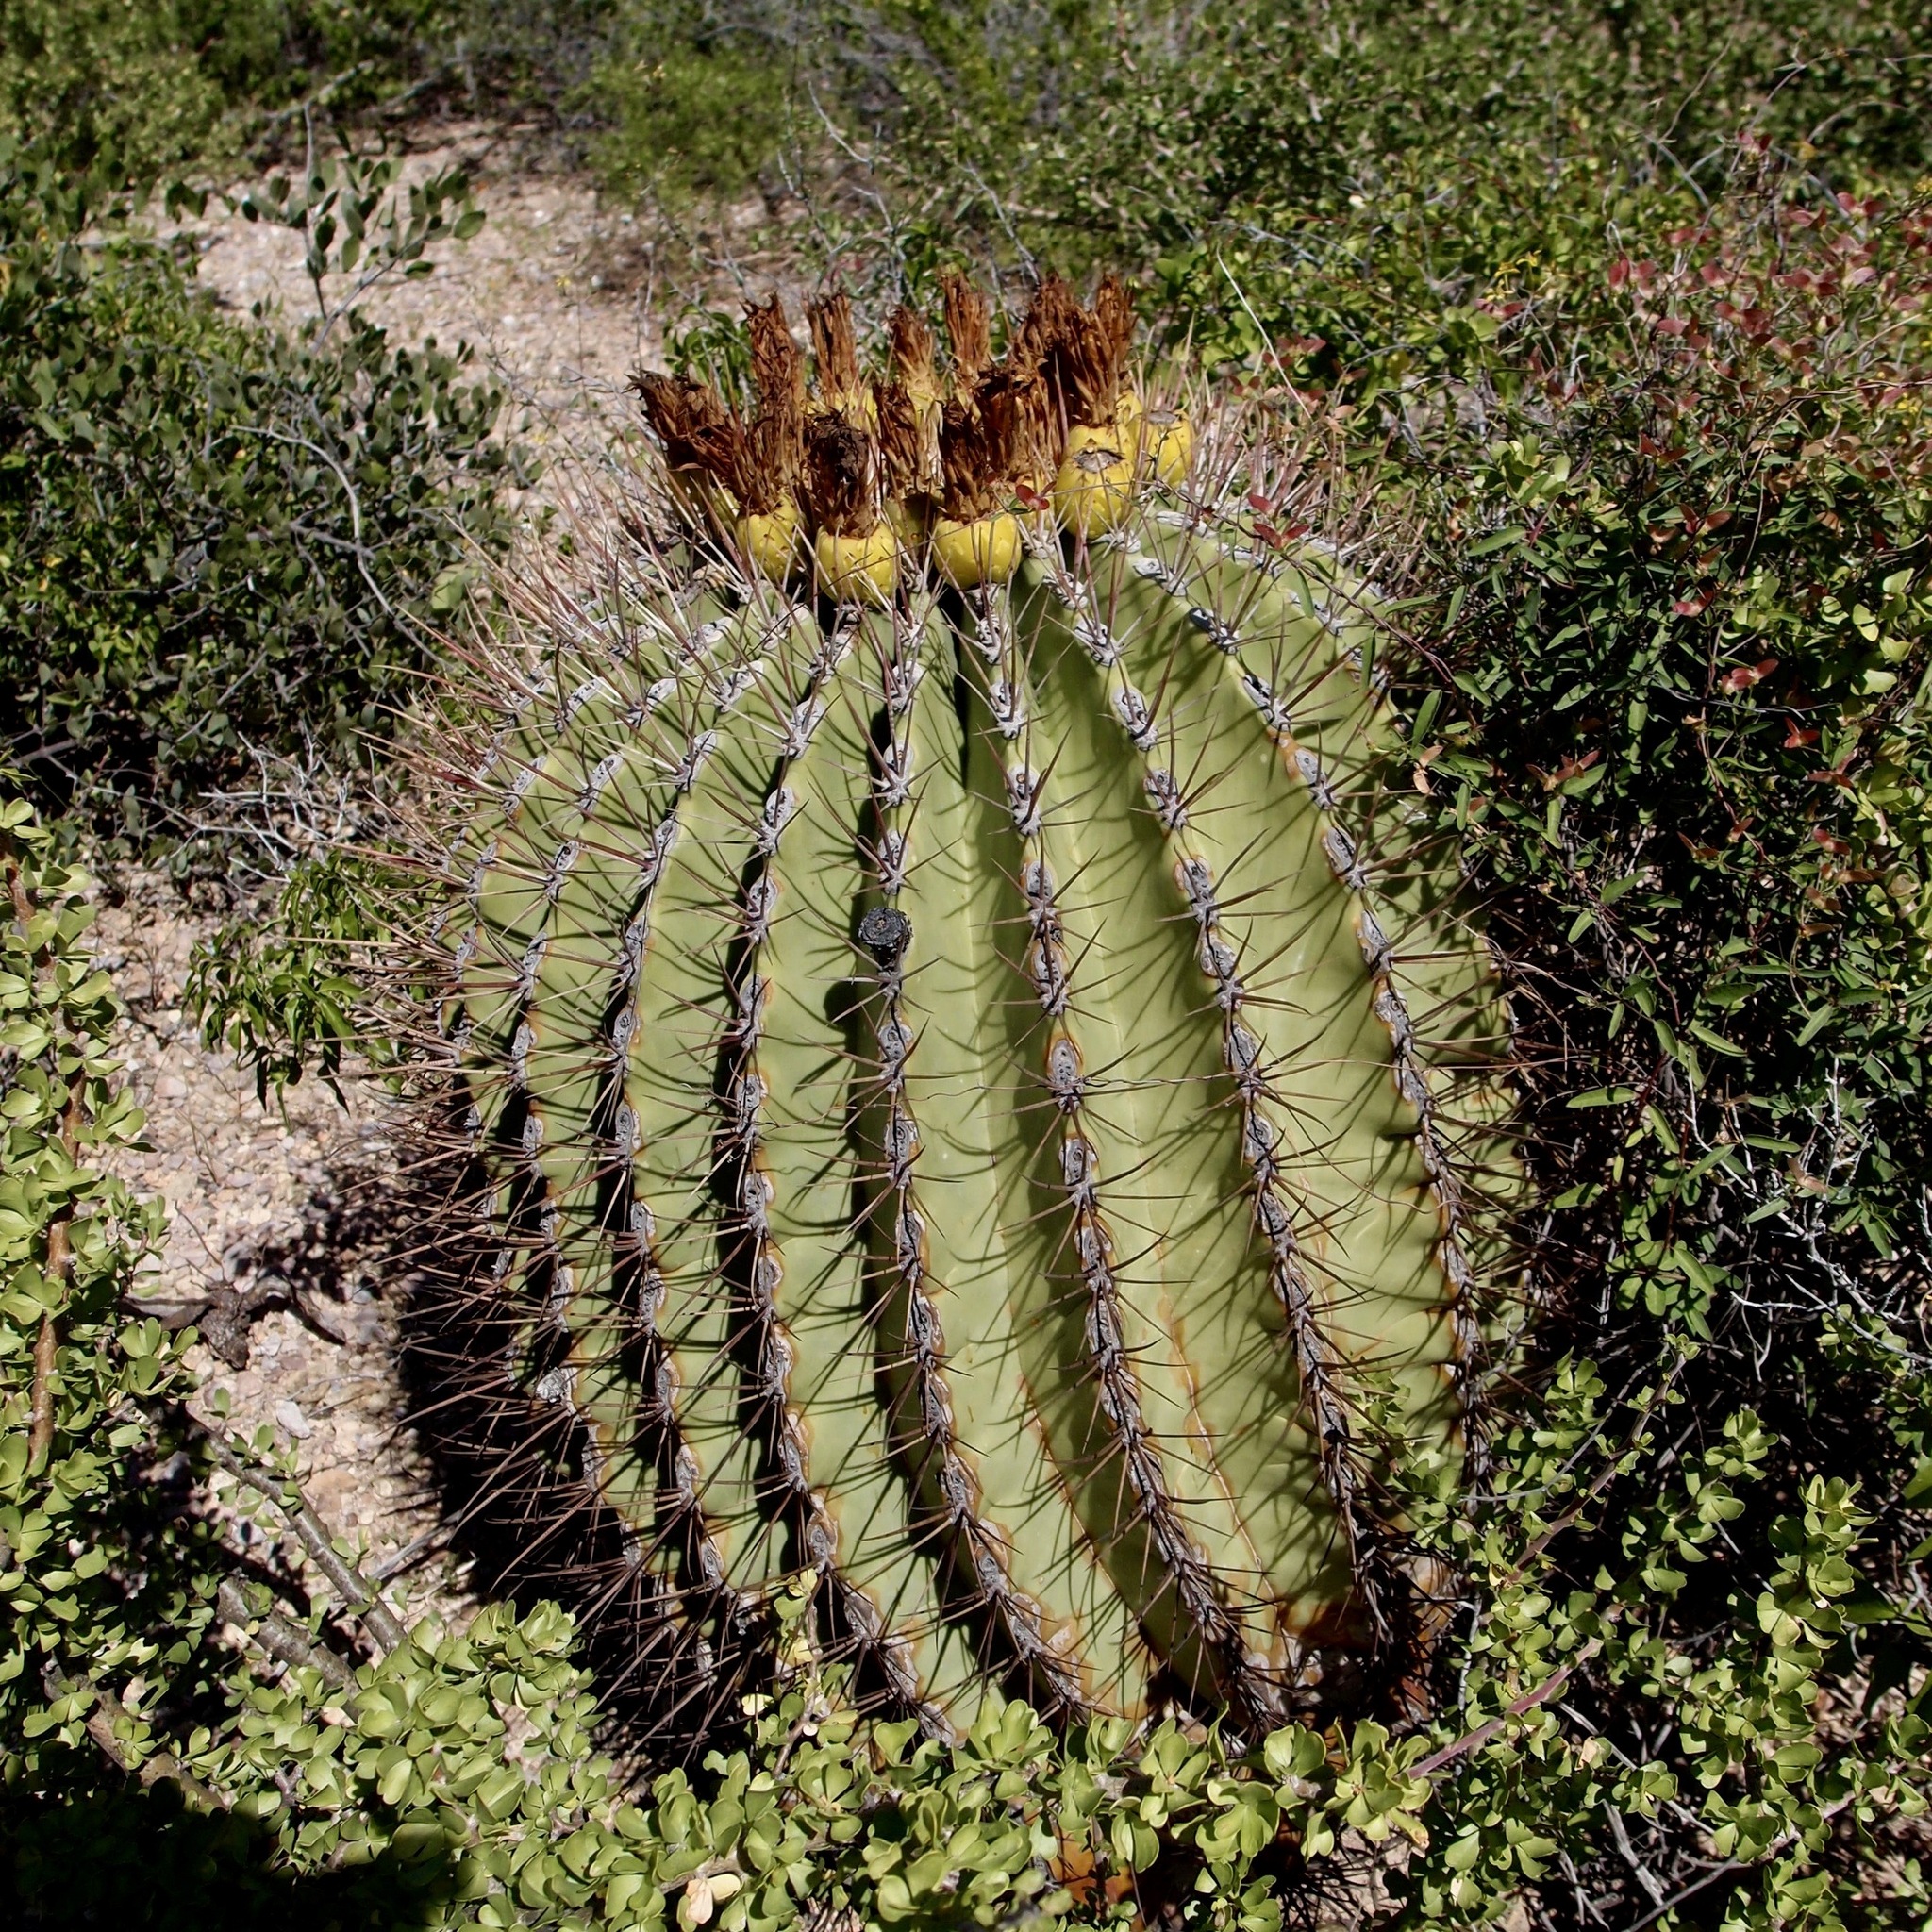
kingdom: Plantae
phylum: Tracheophyta
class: Magnoliopsida
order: Caryophyllales
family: Cactaceae
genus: Ferocactus
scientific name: Ferocactus emoryi
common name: Emory's barrel cactus
